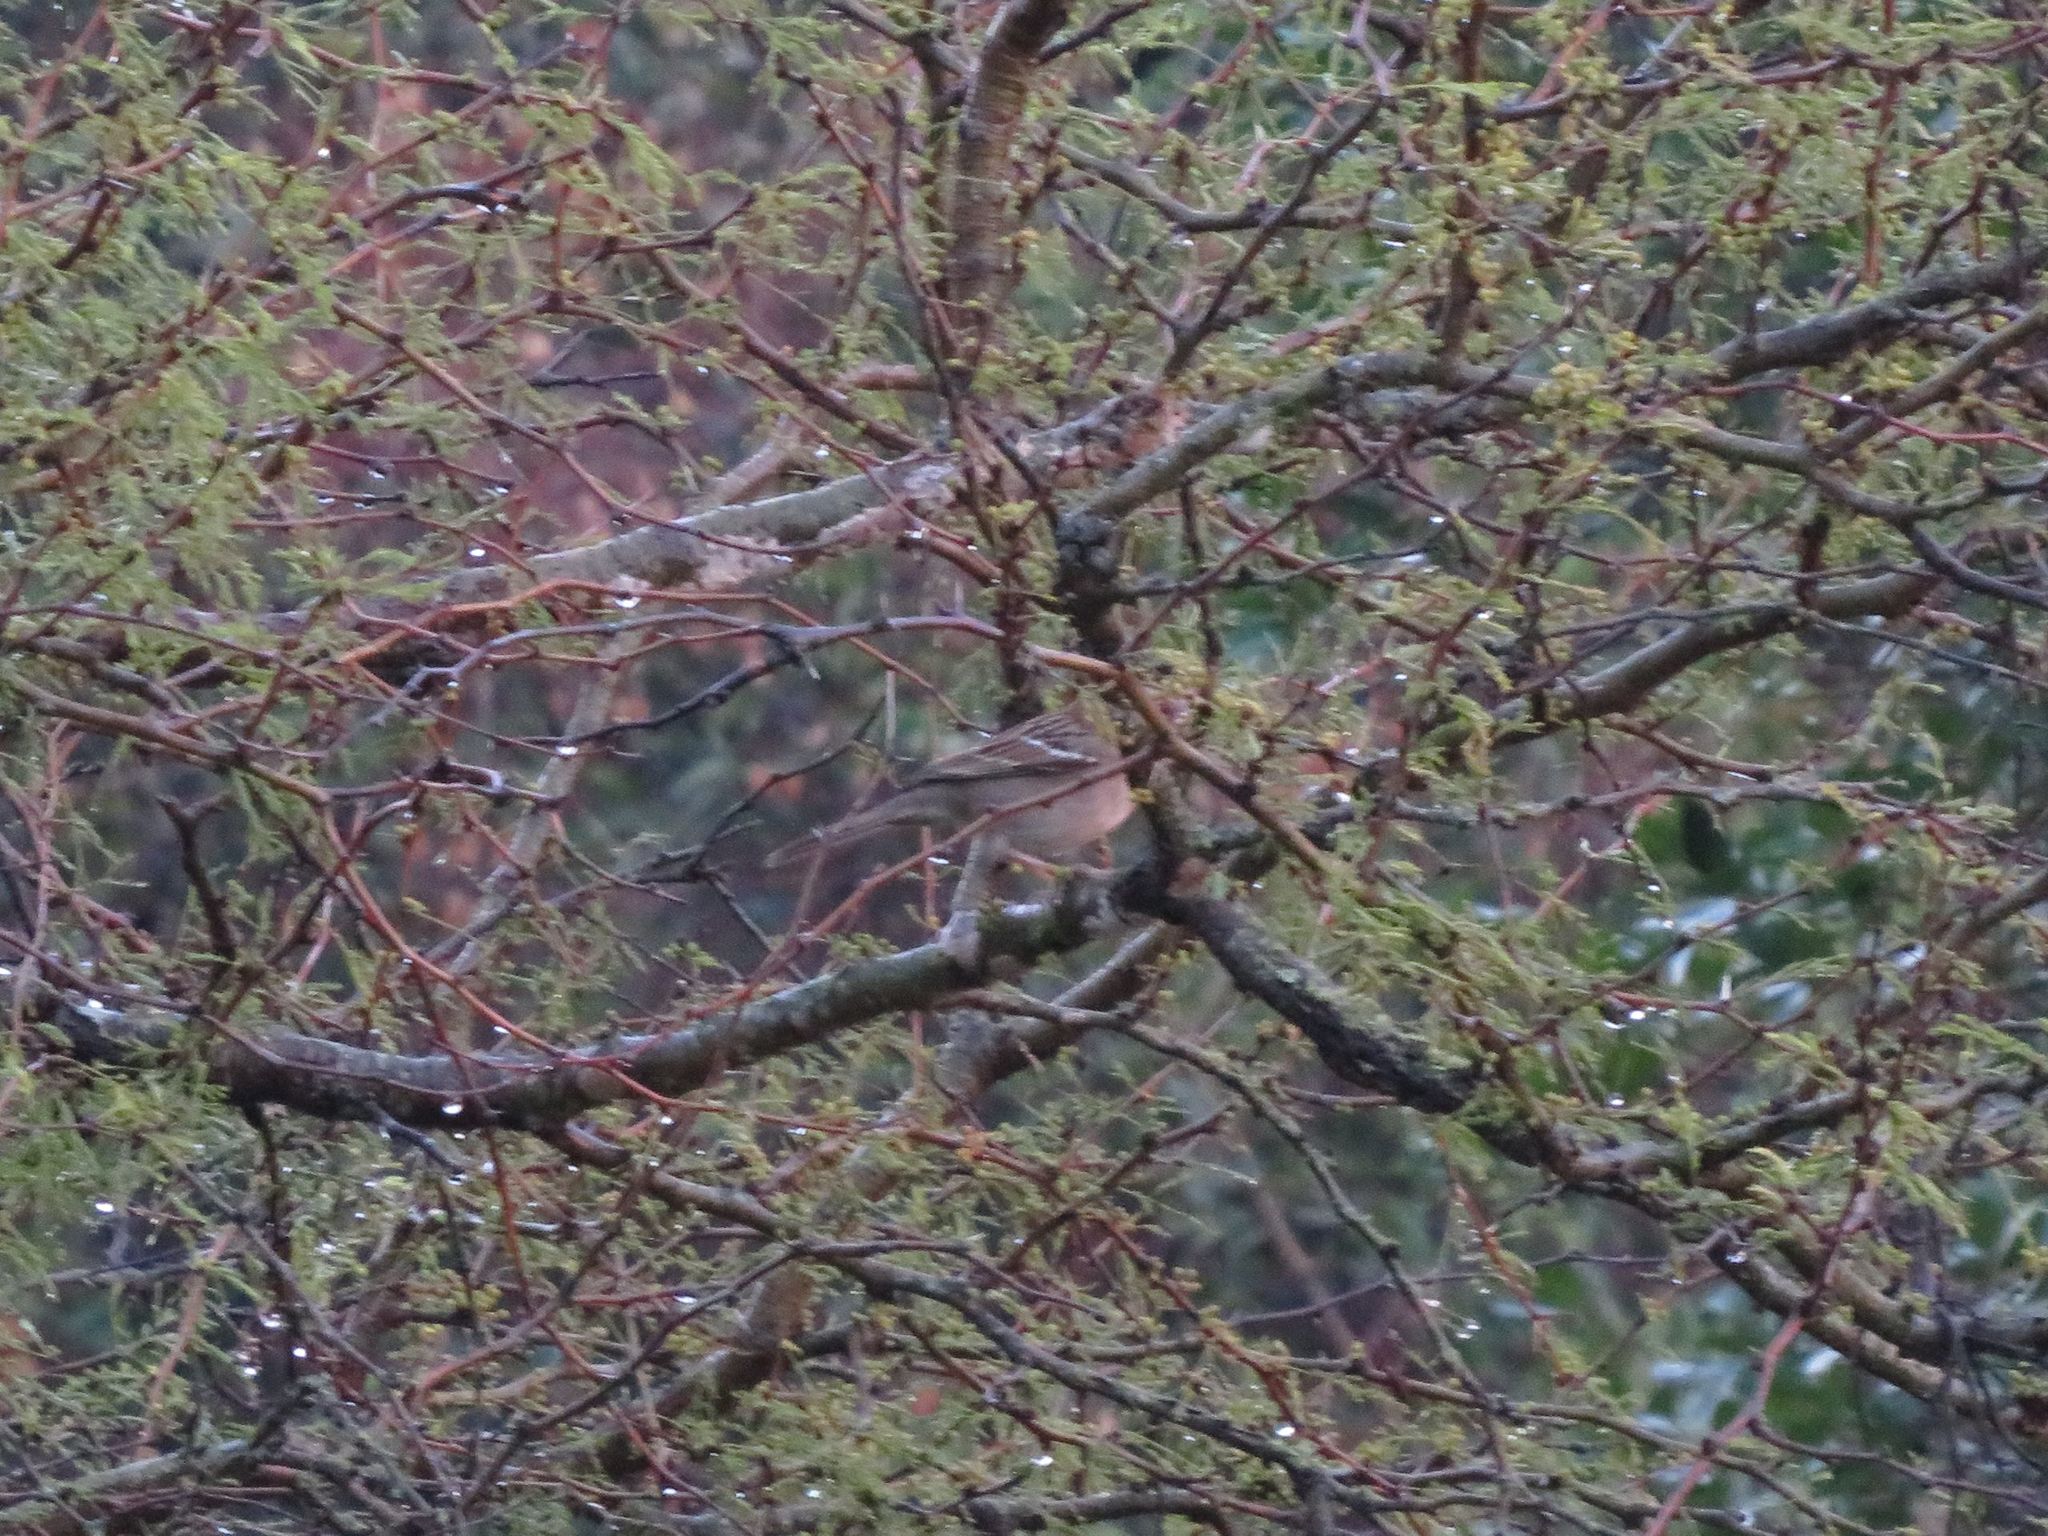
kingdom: Animalia
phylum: Chordata
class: Aves
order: Passeriformes
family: Passerellidae
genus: Zonotrichia
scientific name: Zonotrichia capensis
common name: Rufous-collared sparrow
